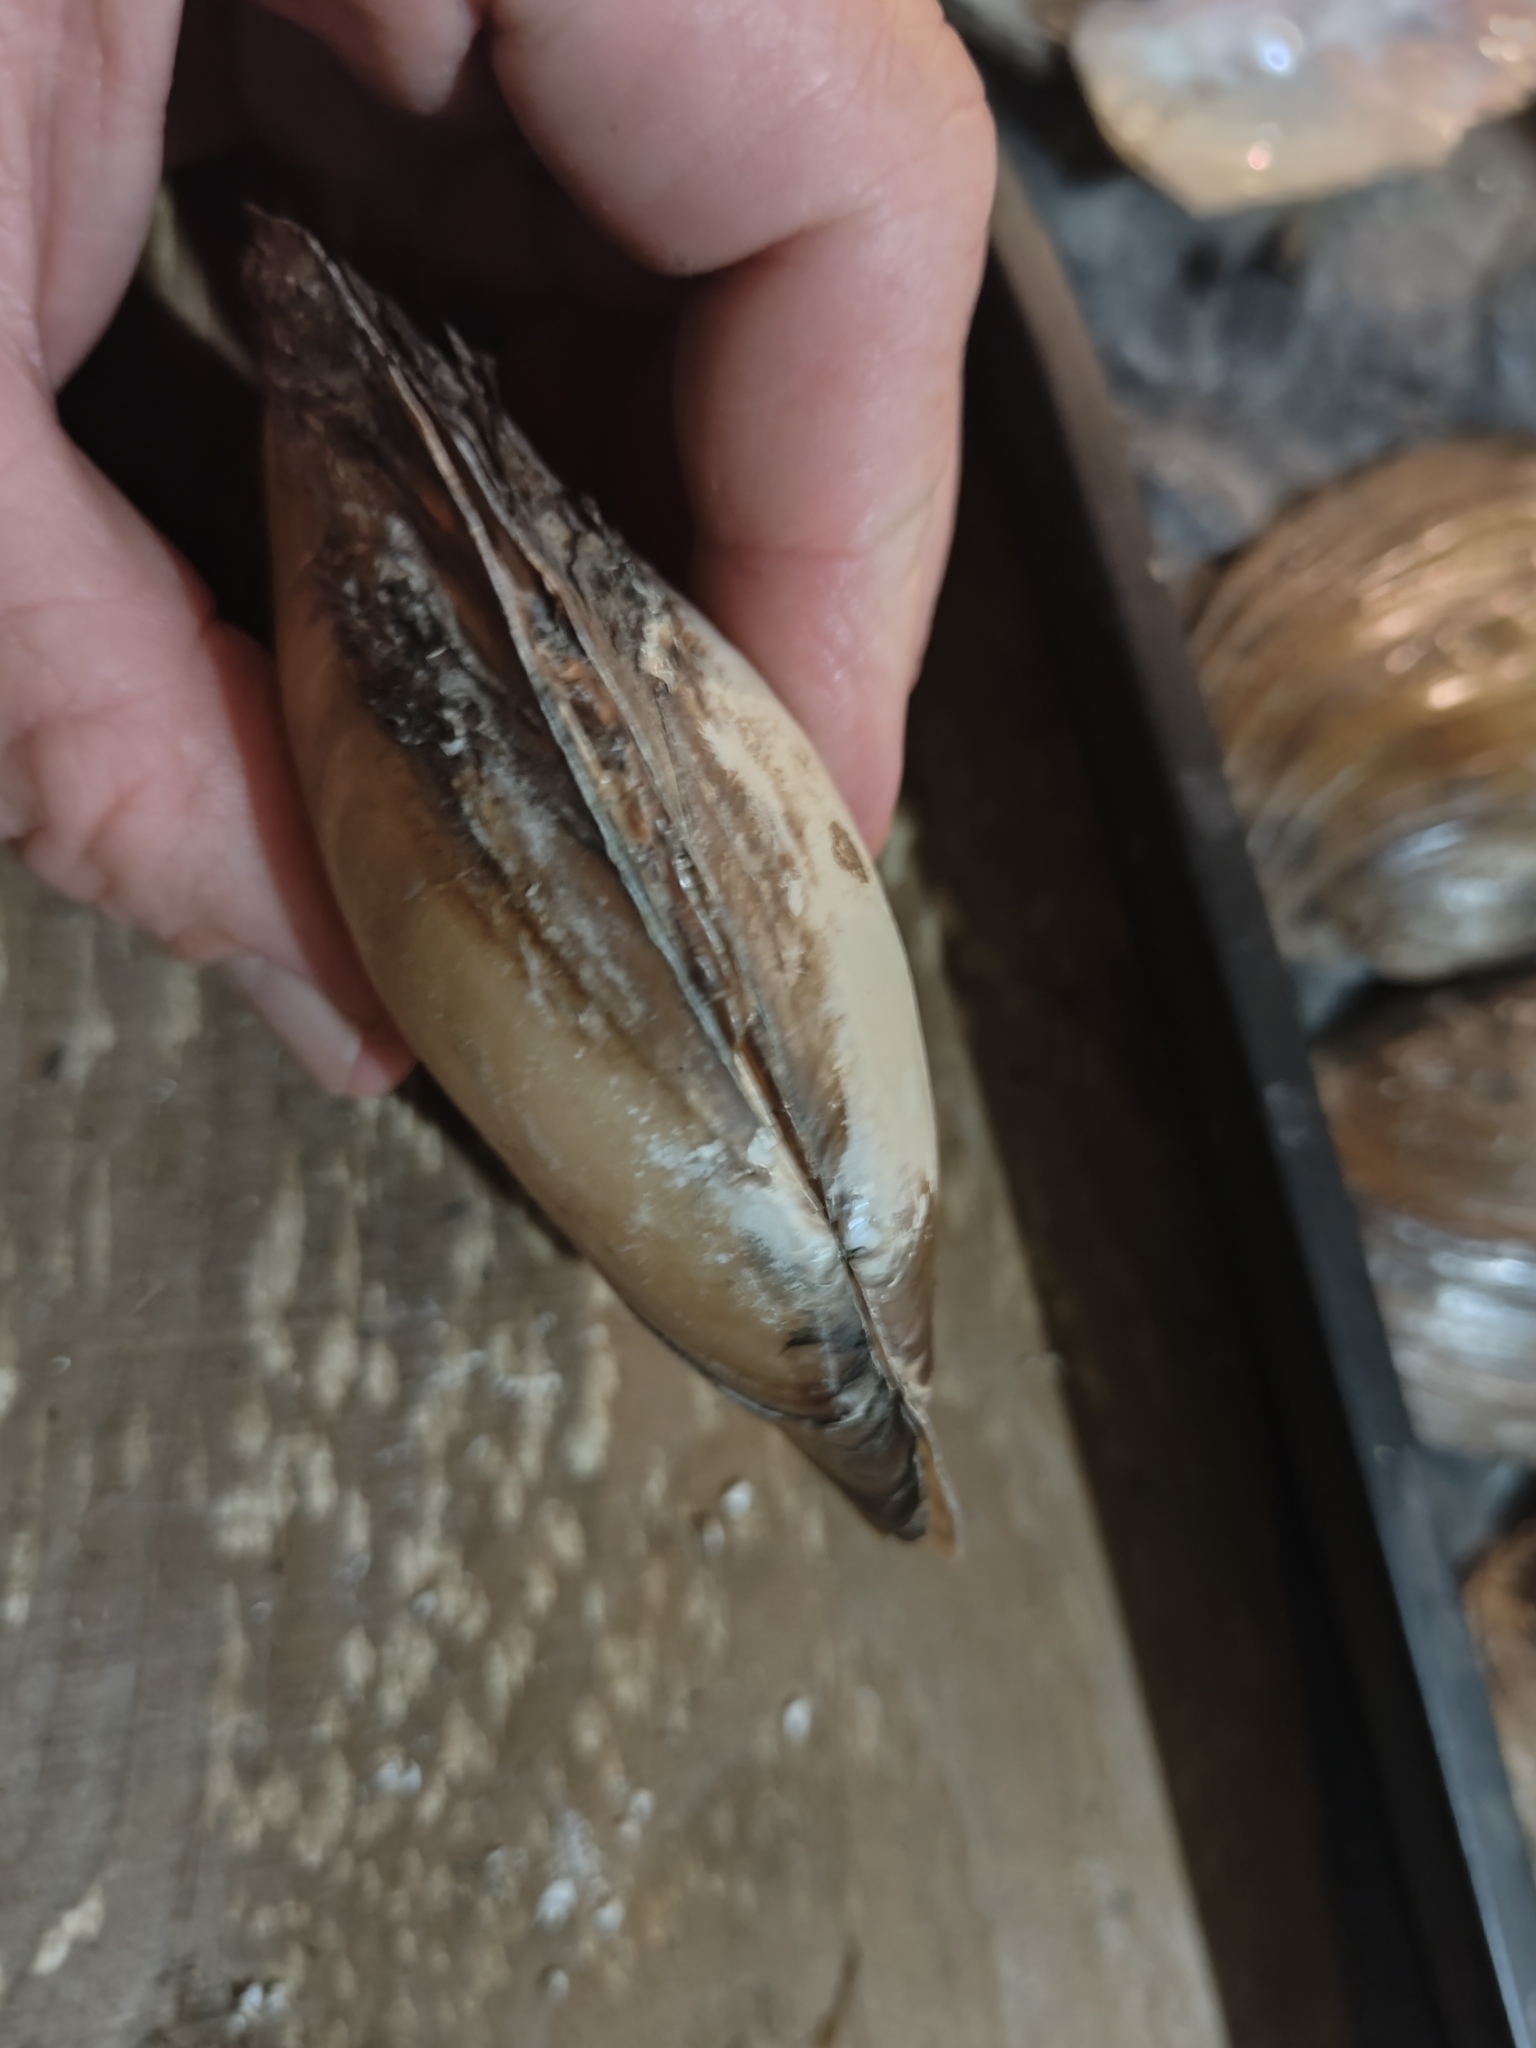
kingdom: Animalia
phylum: Mollusca
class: Bivalvia
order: Unionida
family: Unionidae
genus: Potamilus
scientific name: Potamilus fragilis
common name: Fragile papershell
